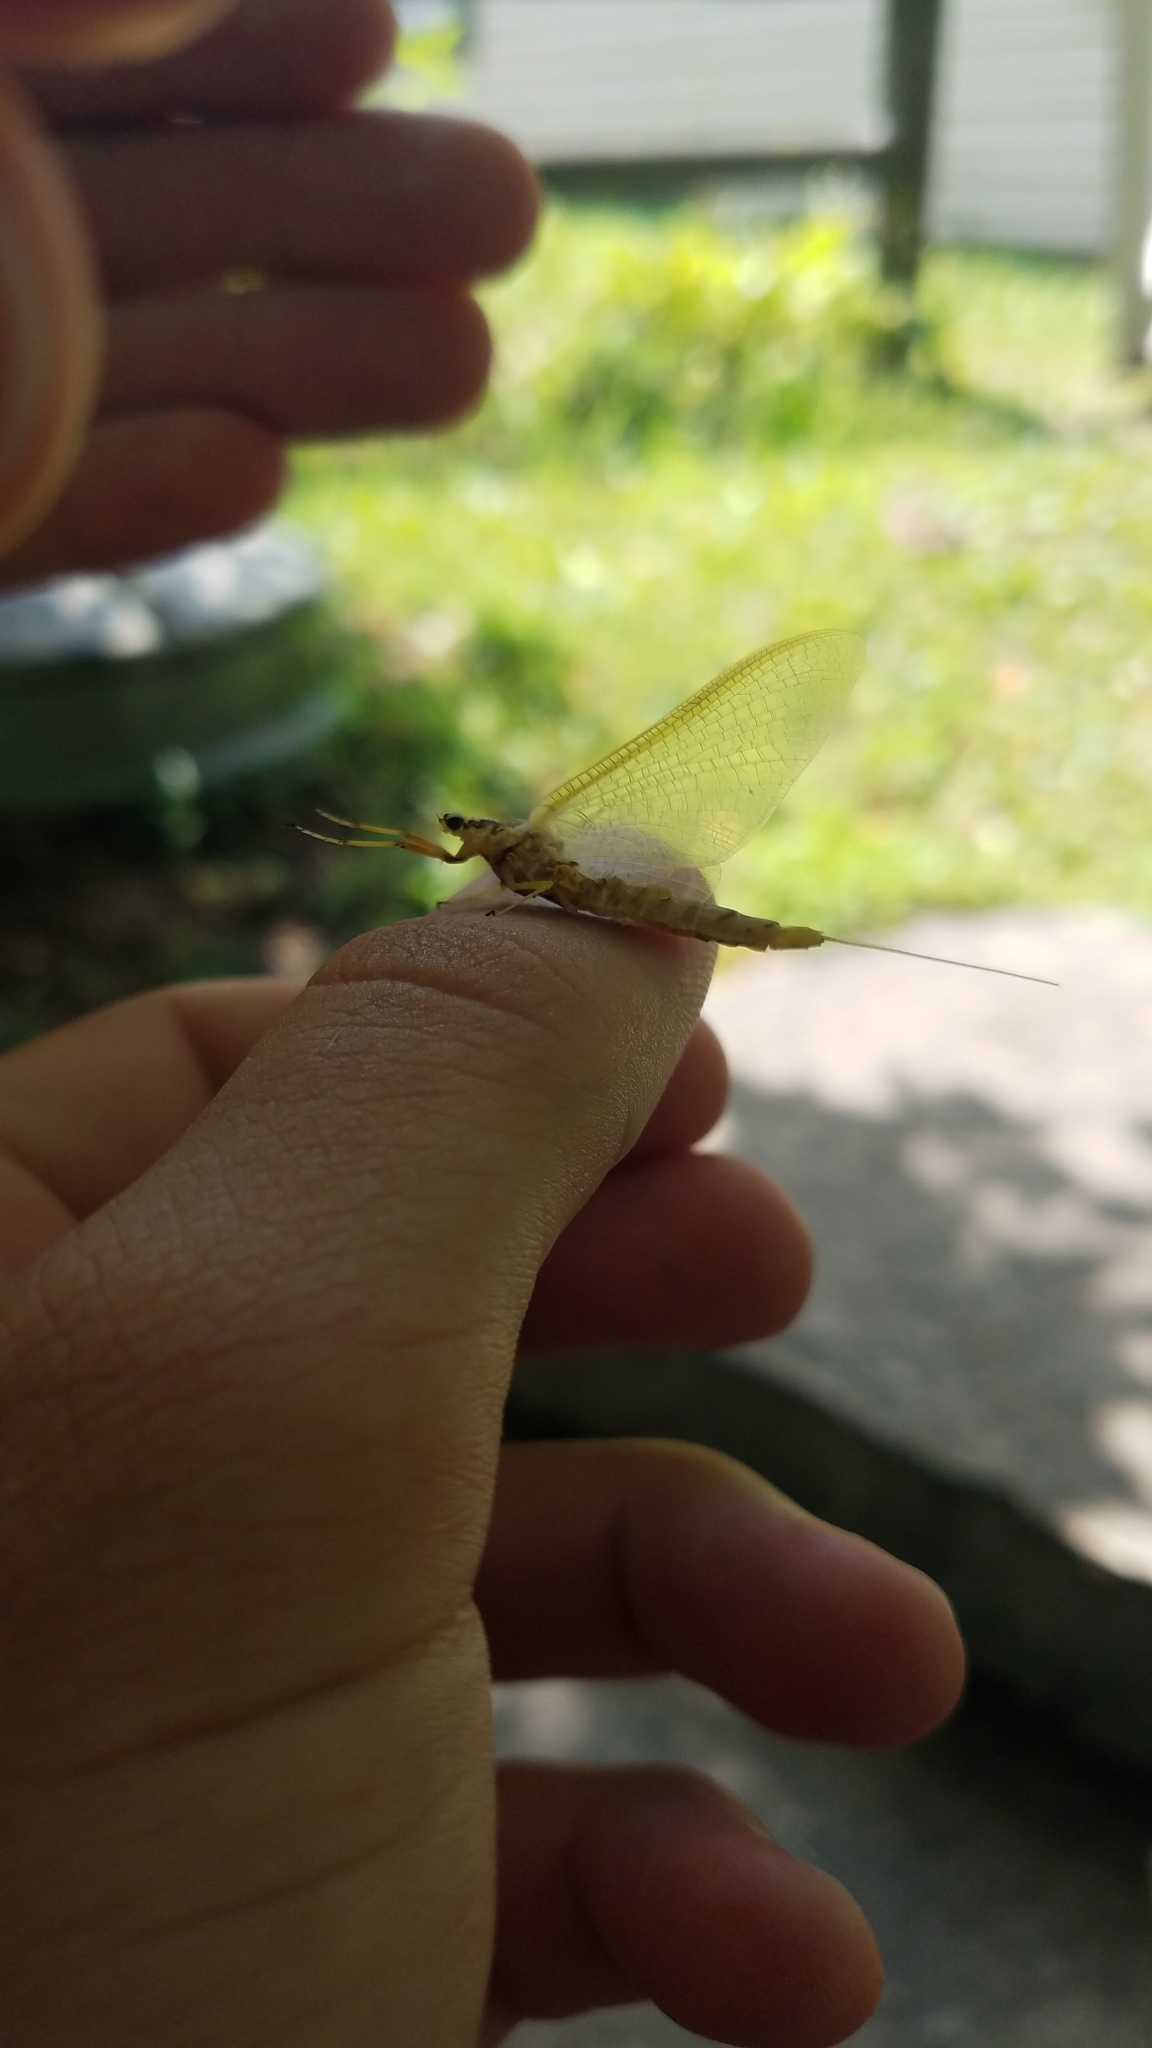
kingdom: Animalia
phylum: Arthropoda
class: Insecta
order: Ephemeroptera
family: Ephemeridae
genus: Hexagenia
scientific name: Hexagenia limbata
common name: Giant mayfly
